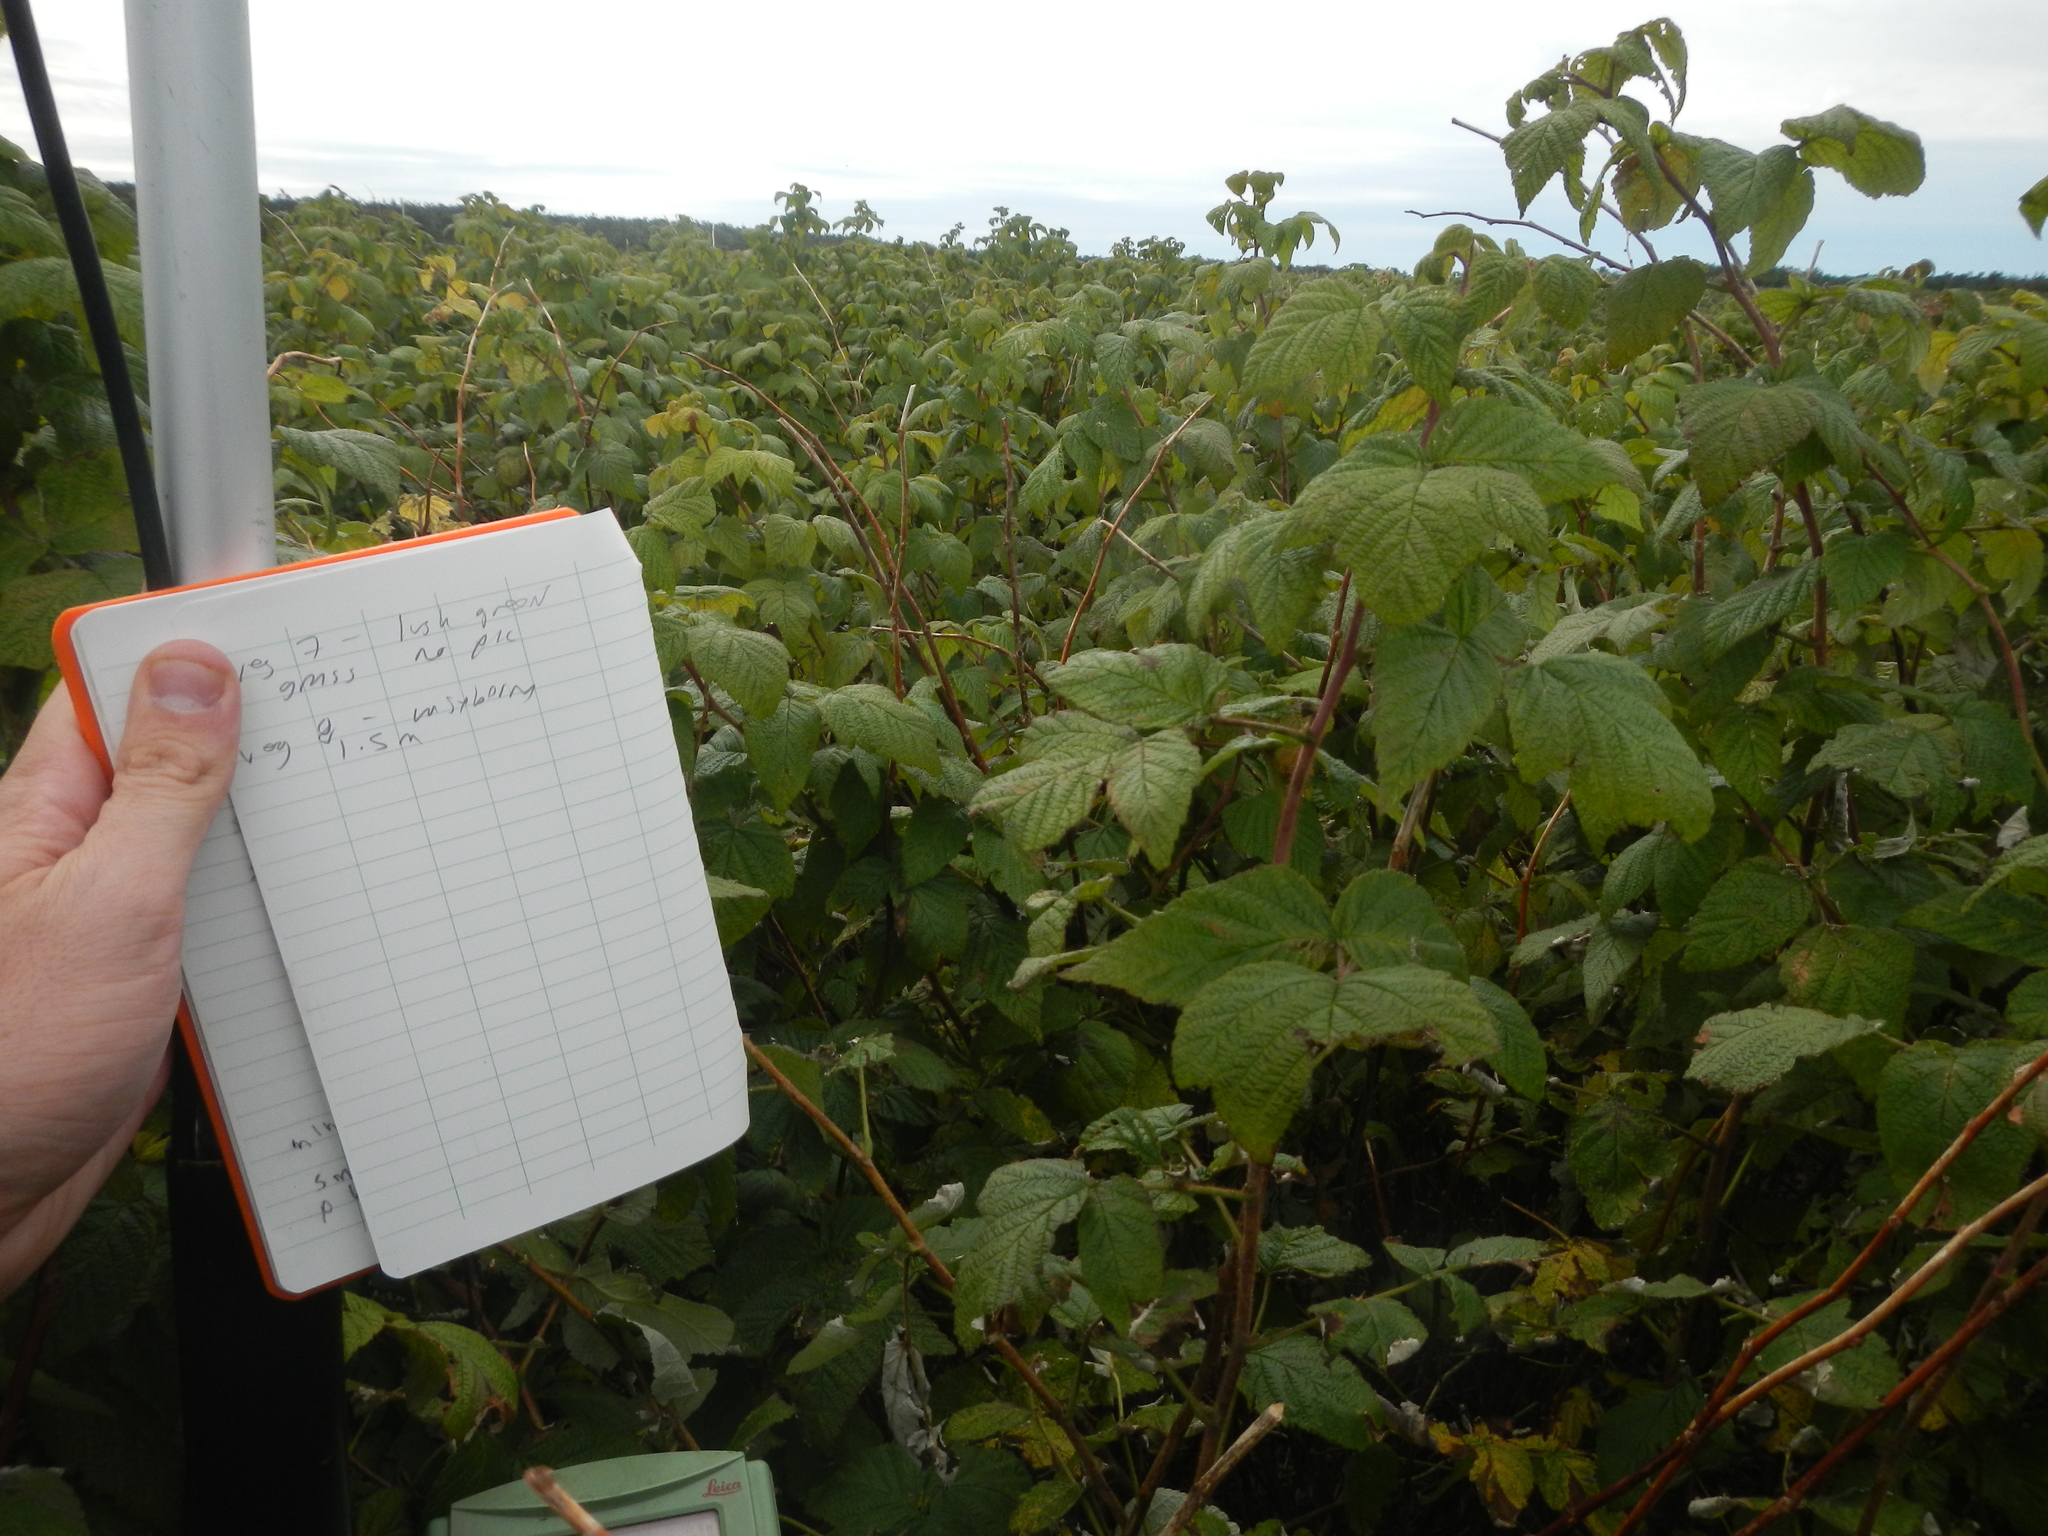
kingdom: Plantae
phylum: Tracheophyta
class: Magnoliopsida
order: Rosales
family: Rosaceae
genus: Rubus
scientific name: Rubus idaeus
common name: Raspberry
